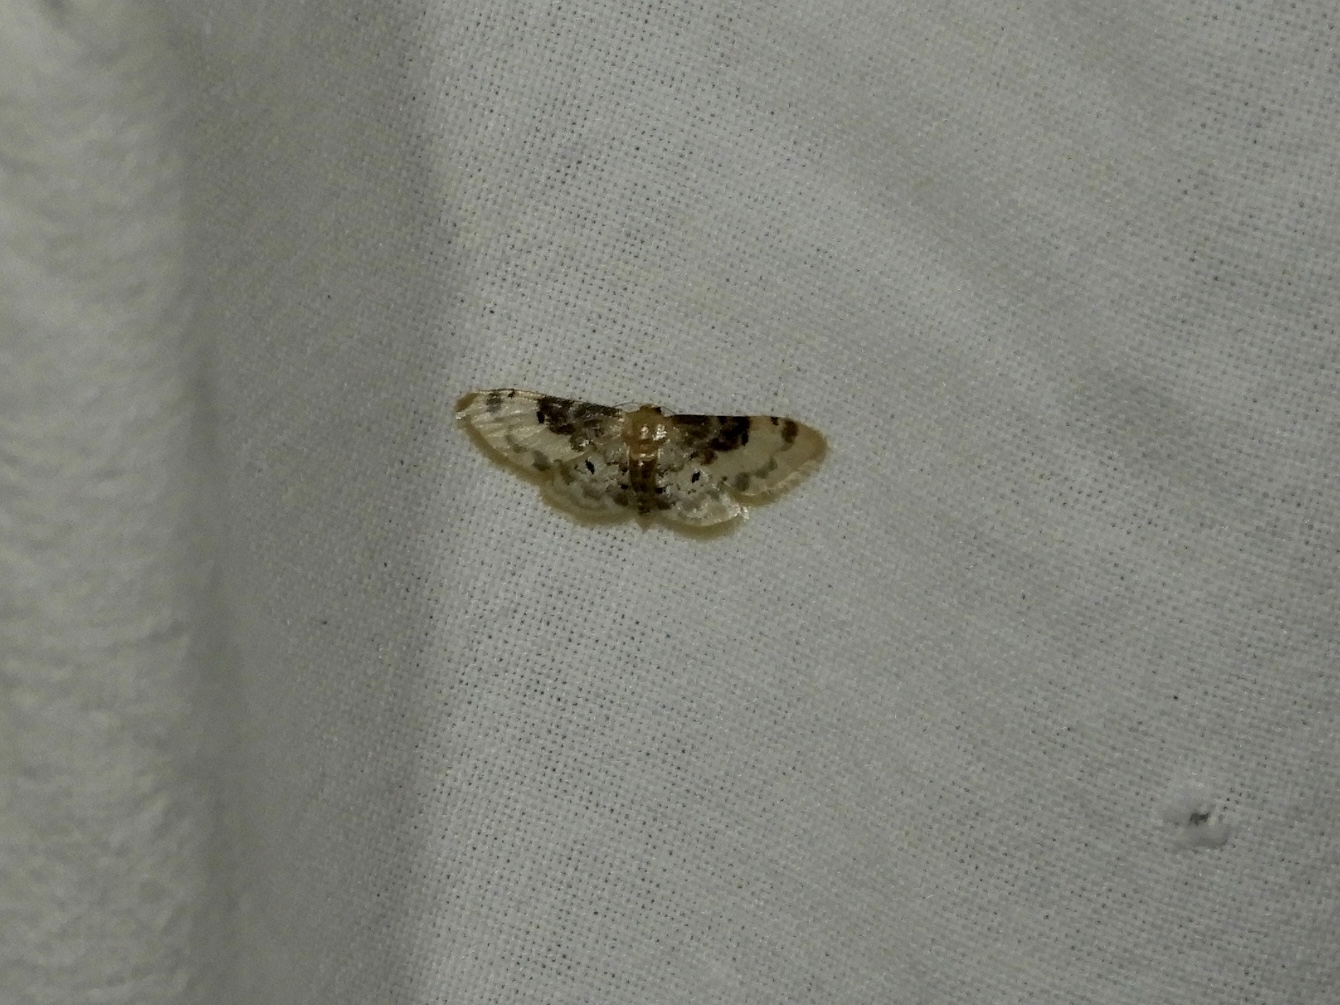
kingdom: Animalia
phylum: Arthropoda
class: Insecta
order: Lepidoptera
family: Geometridae
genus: Idaea
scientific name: Idaea filicata
